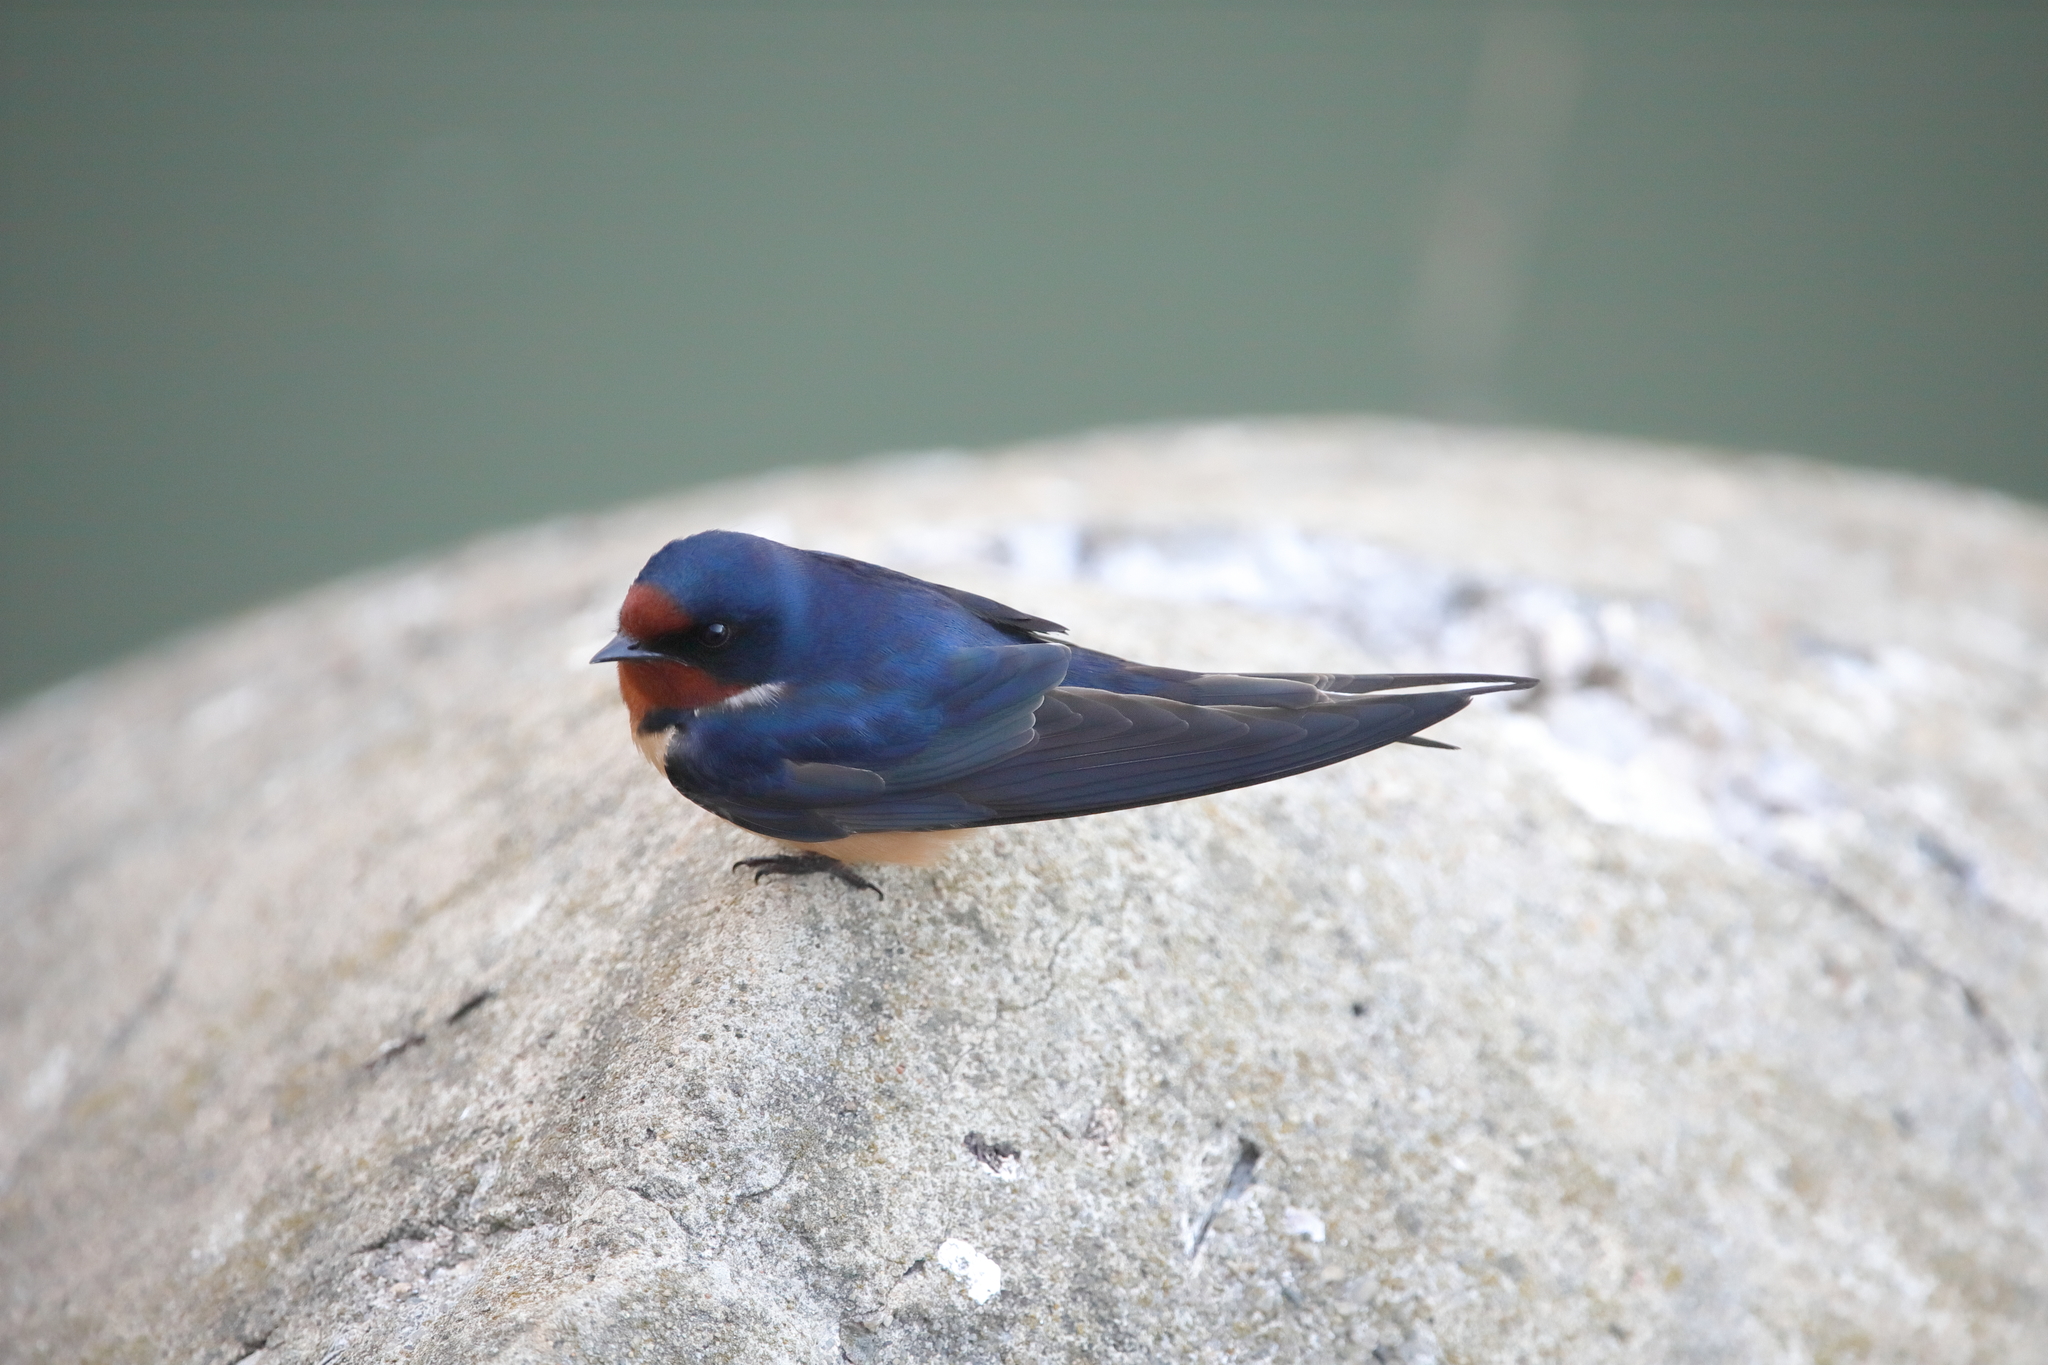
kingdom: Animalia
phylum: Chordata
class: Aves
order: Passeriformes
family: Hirundinidae
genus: Hirundo
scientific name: Hirundo rustica
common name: Barn swallow
